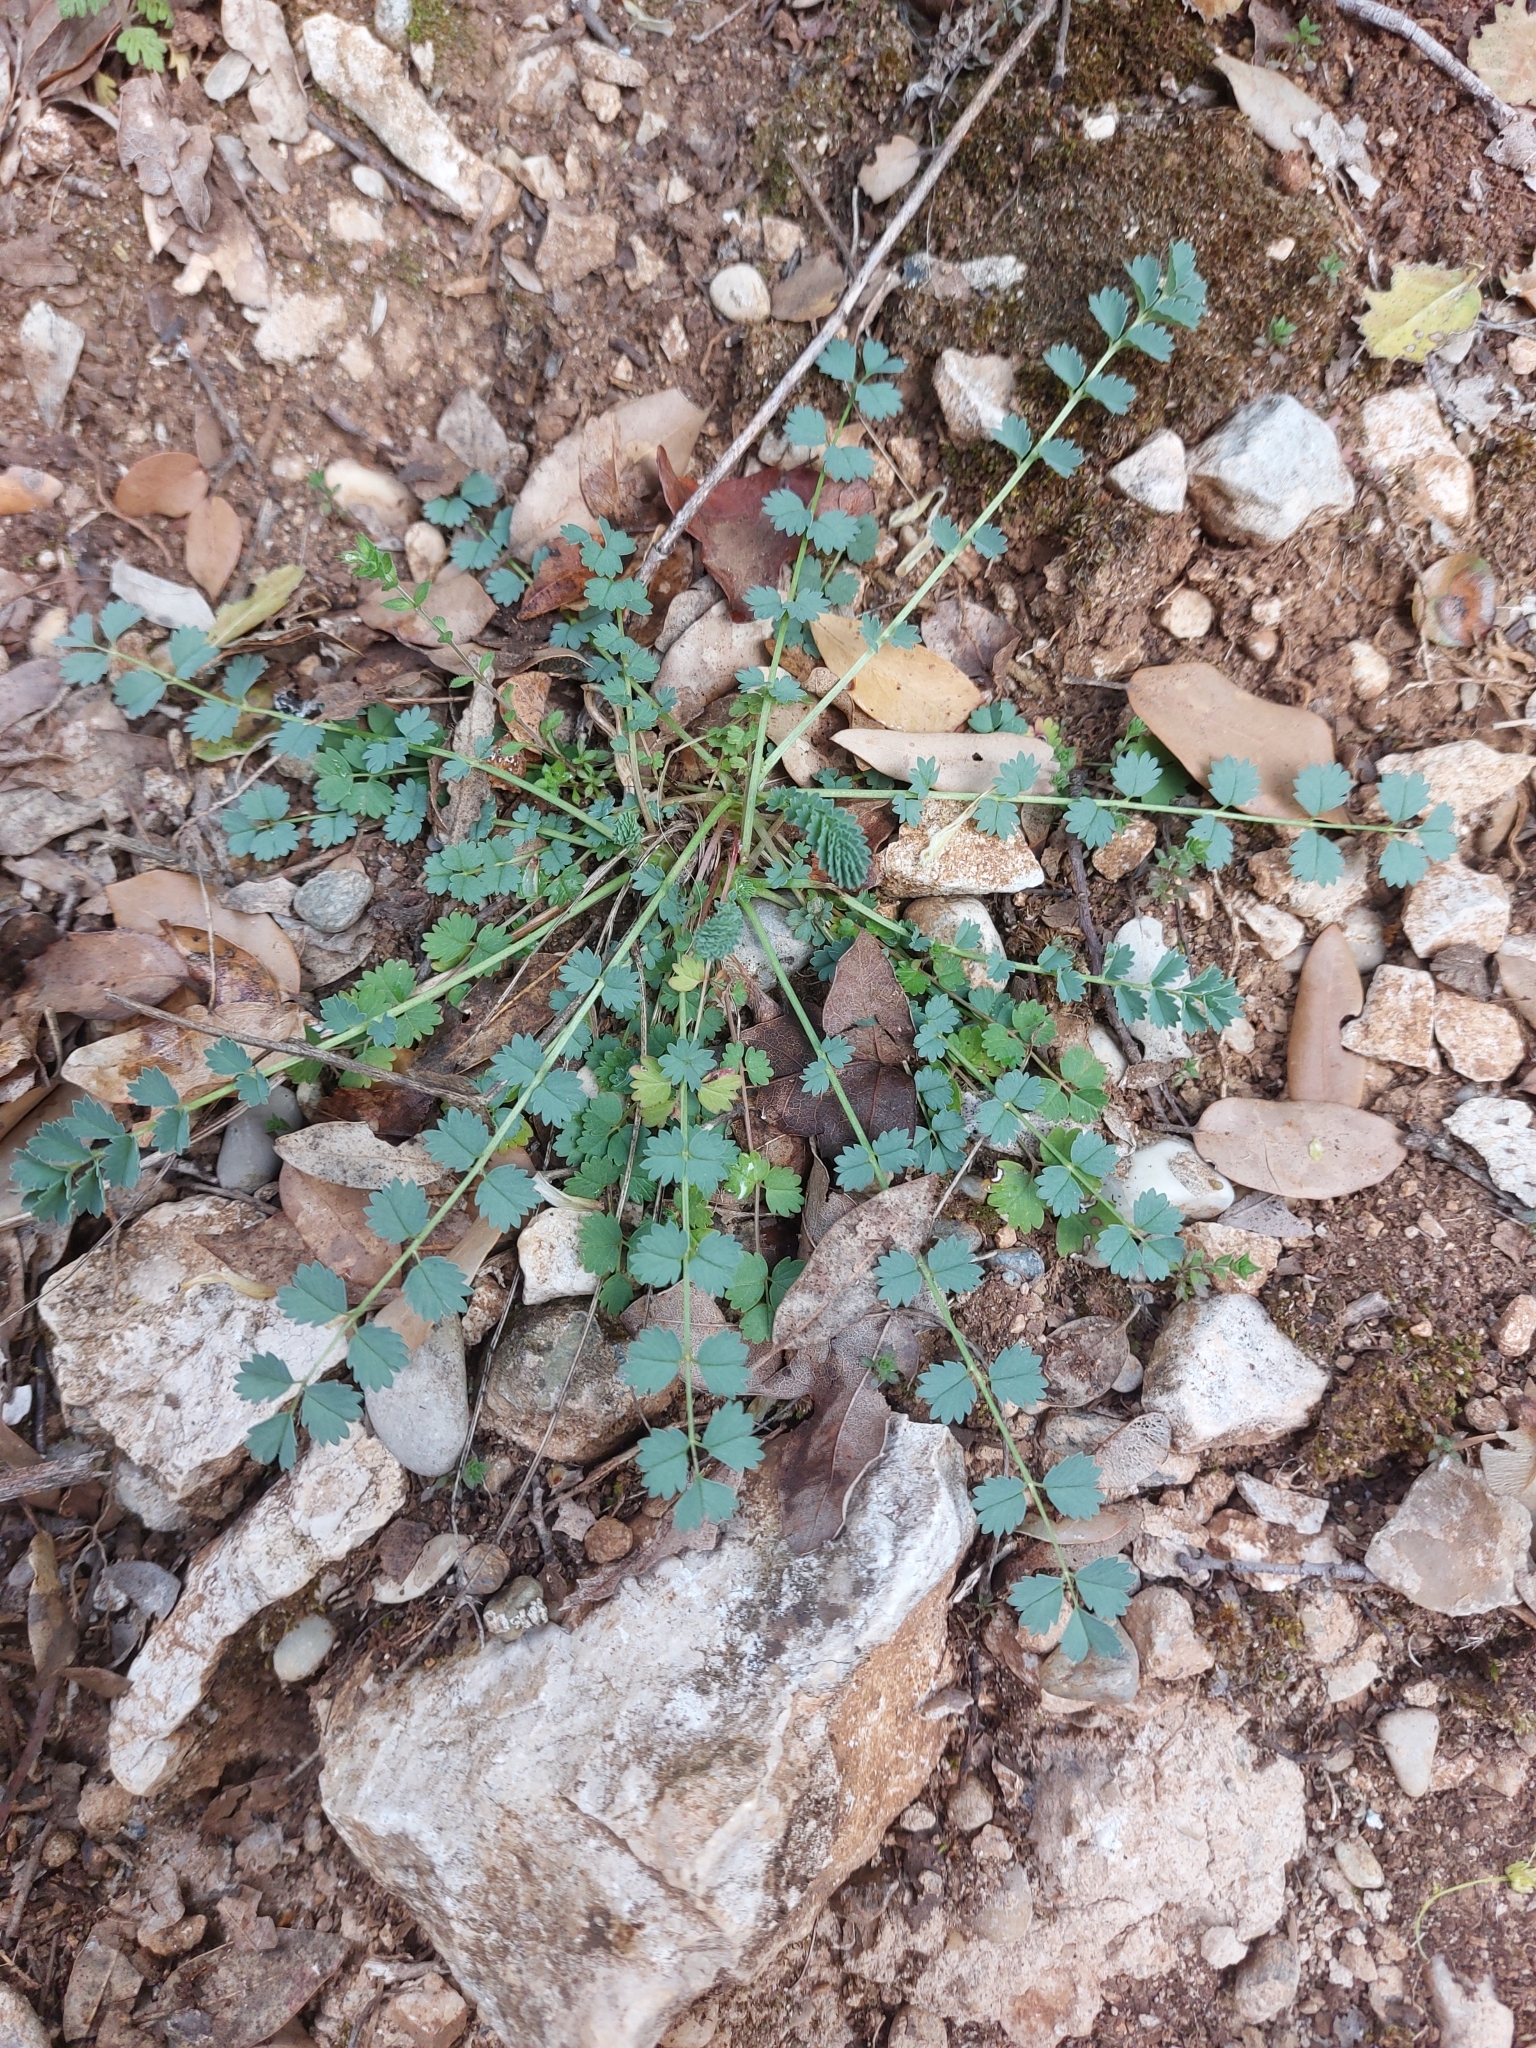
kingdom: Plantae
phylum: Tracheophyta
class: Magnoliopsida
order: Rosales
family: Rosaceae
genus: Poterium
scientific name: Poterium sanguisorba
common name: Salad burnet
